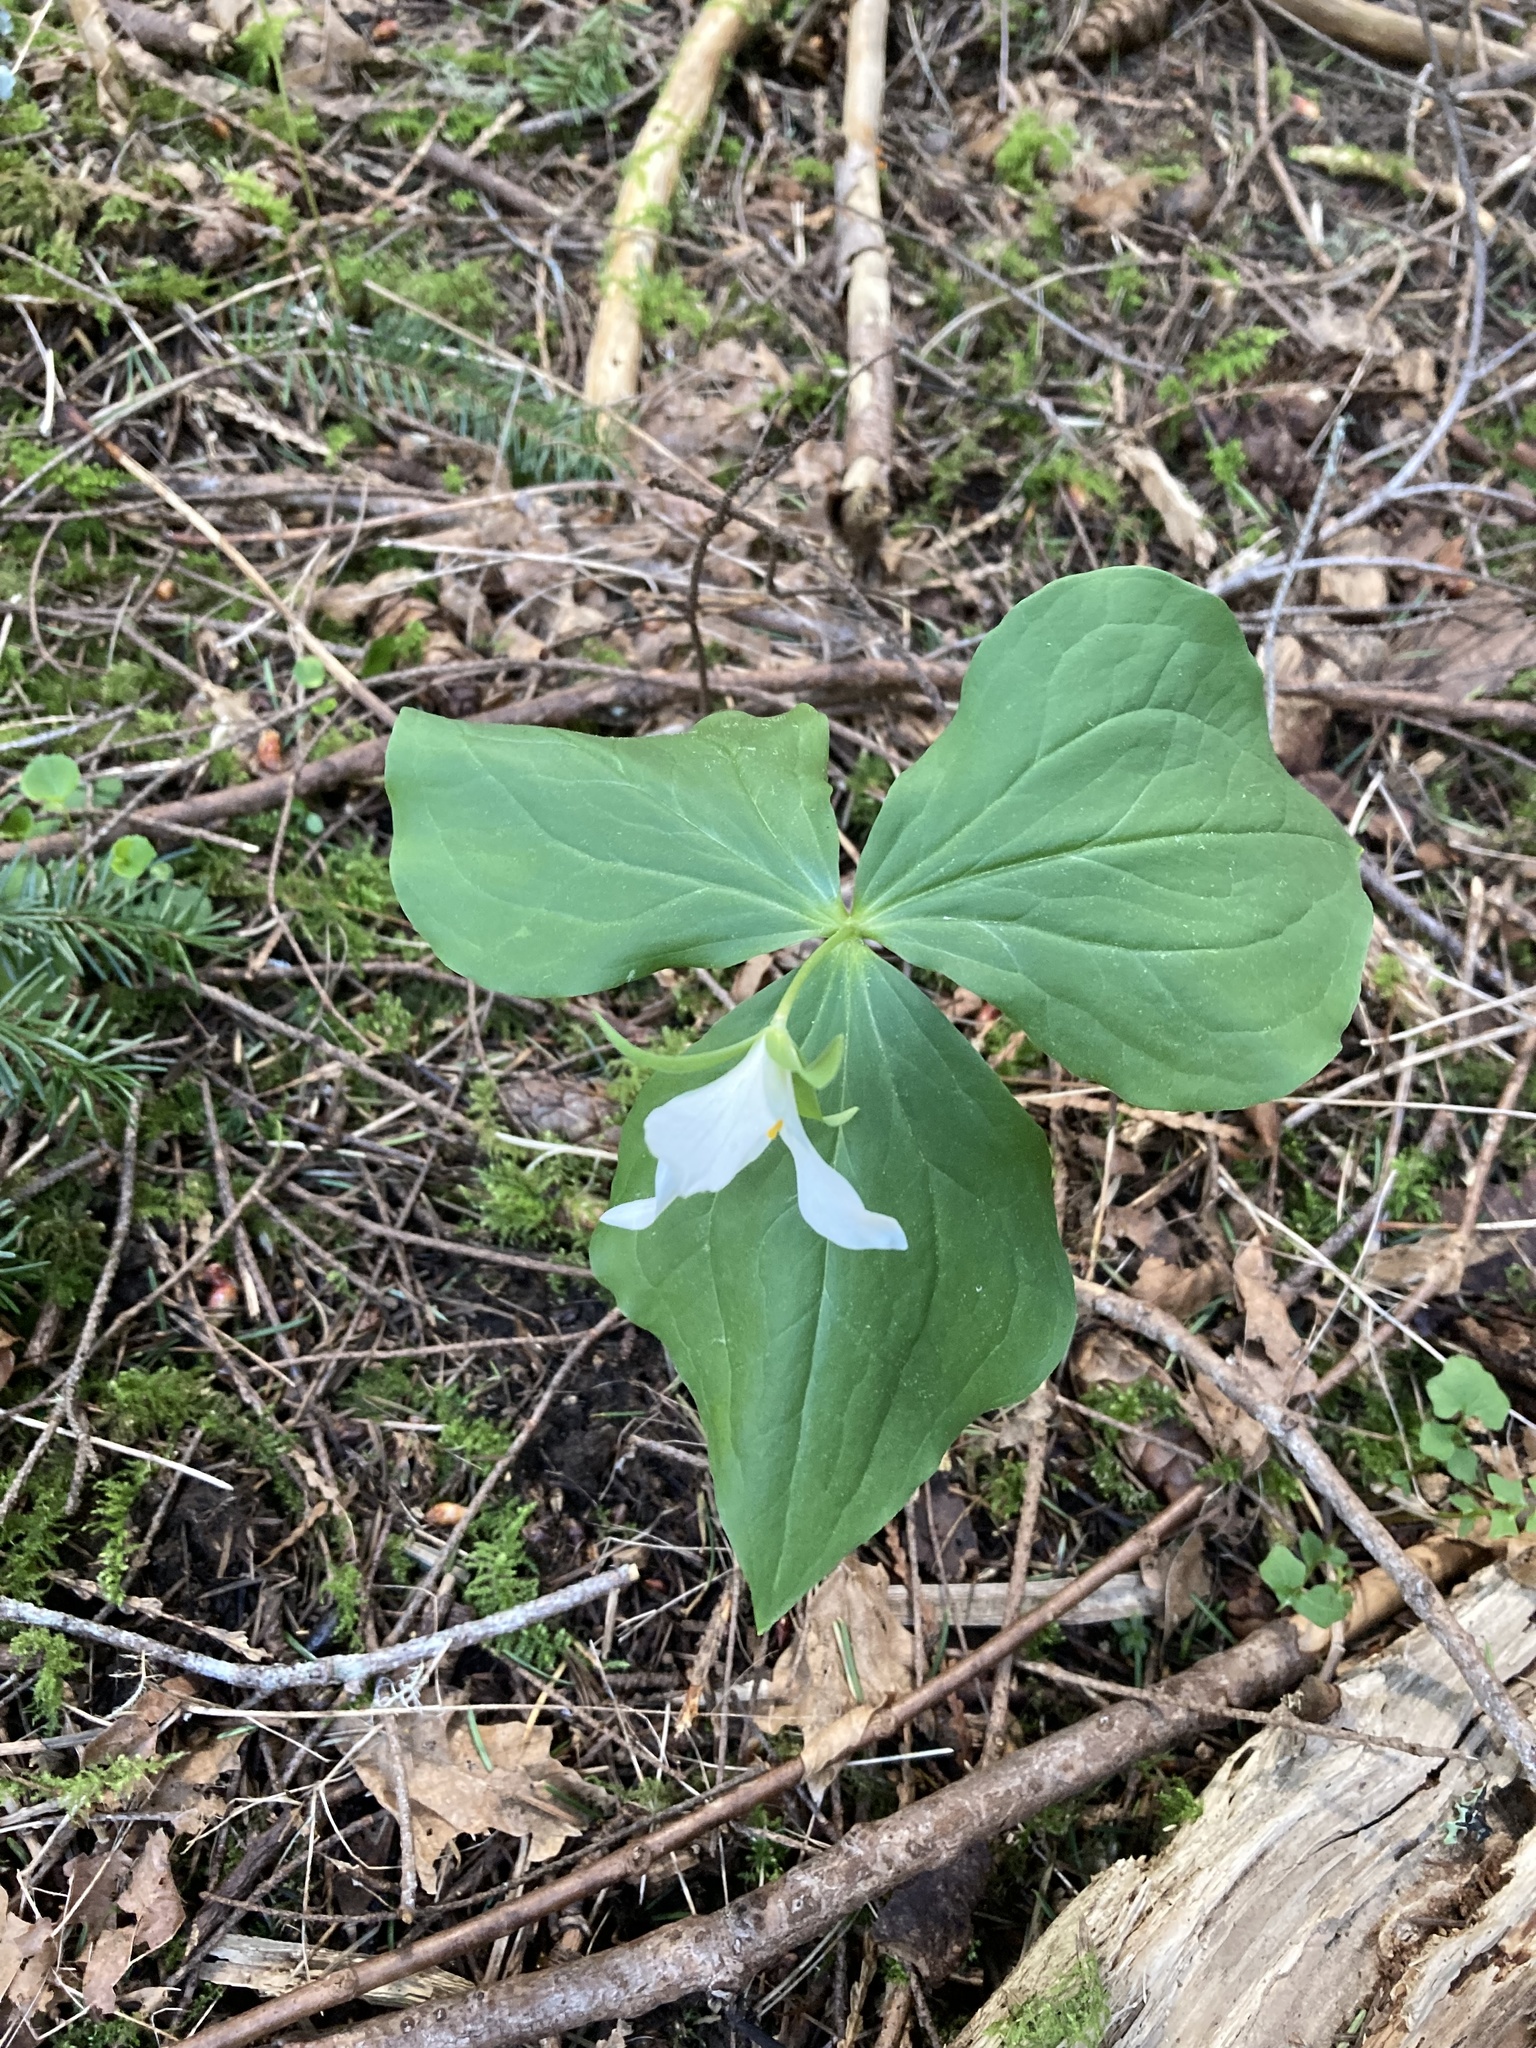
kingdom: Plantae
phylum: Tracheophyta
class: Liliopsida
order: Liliales
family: Melanthiaceae
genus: Trillium
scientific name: Trillium ovatum
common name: Pacific trillium
